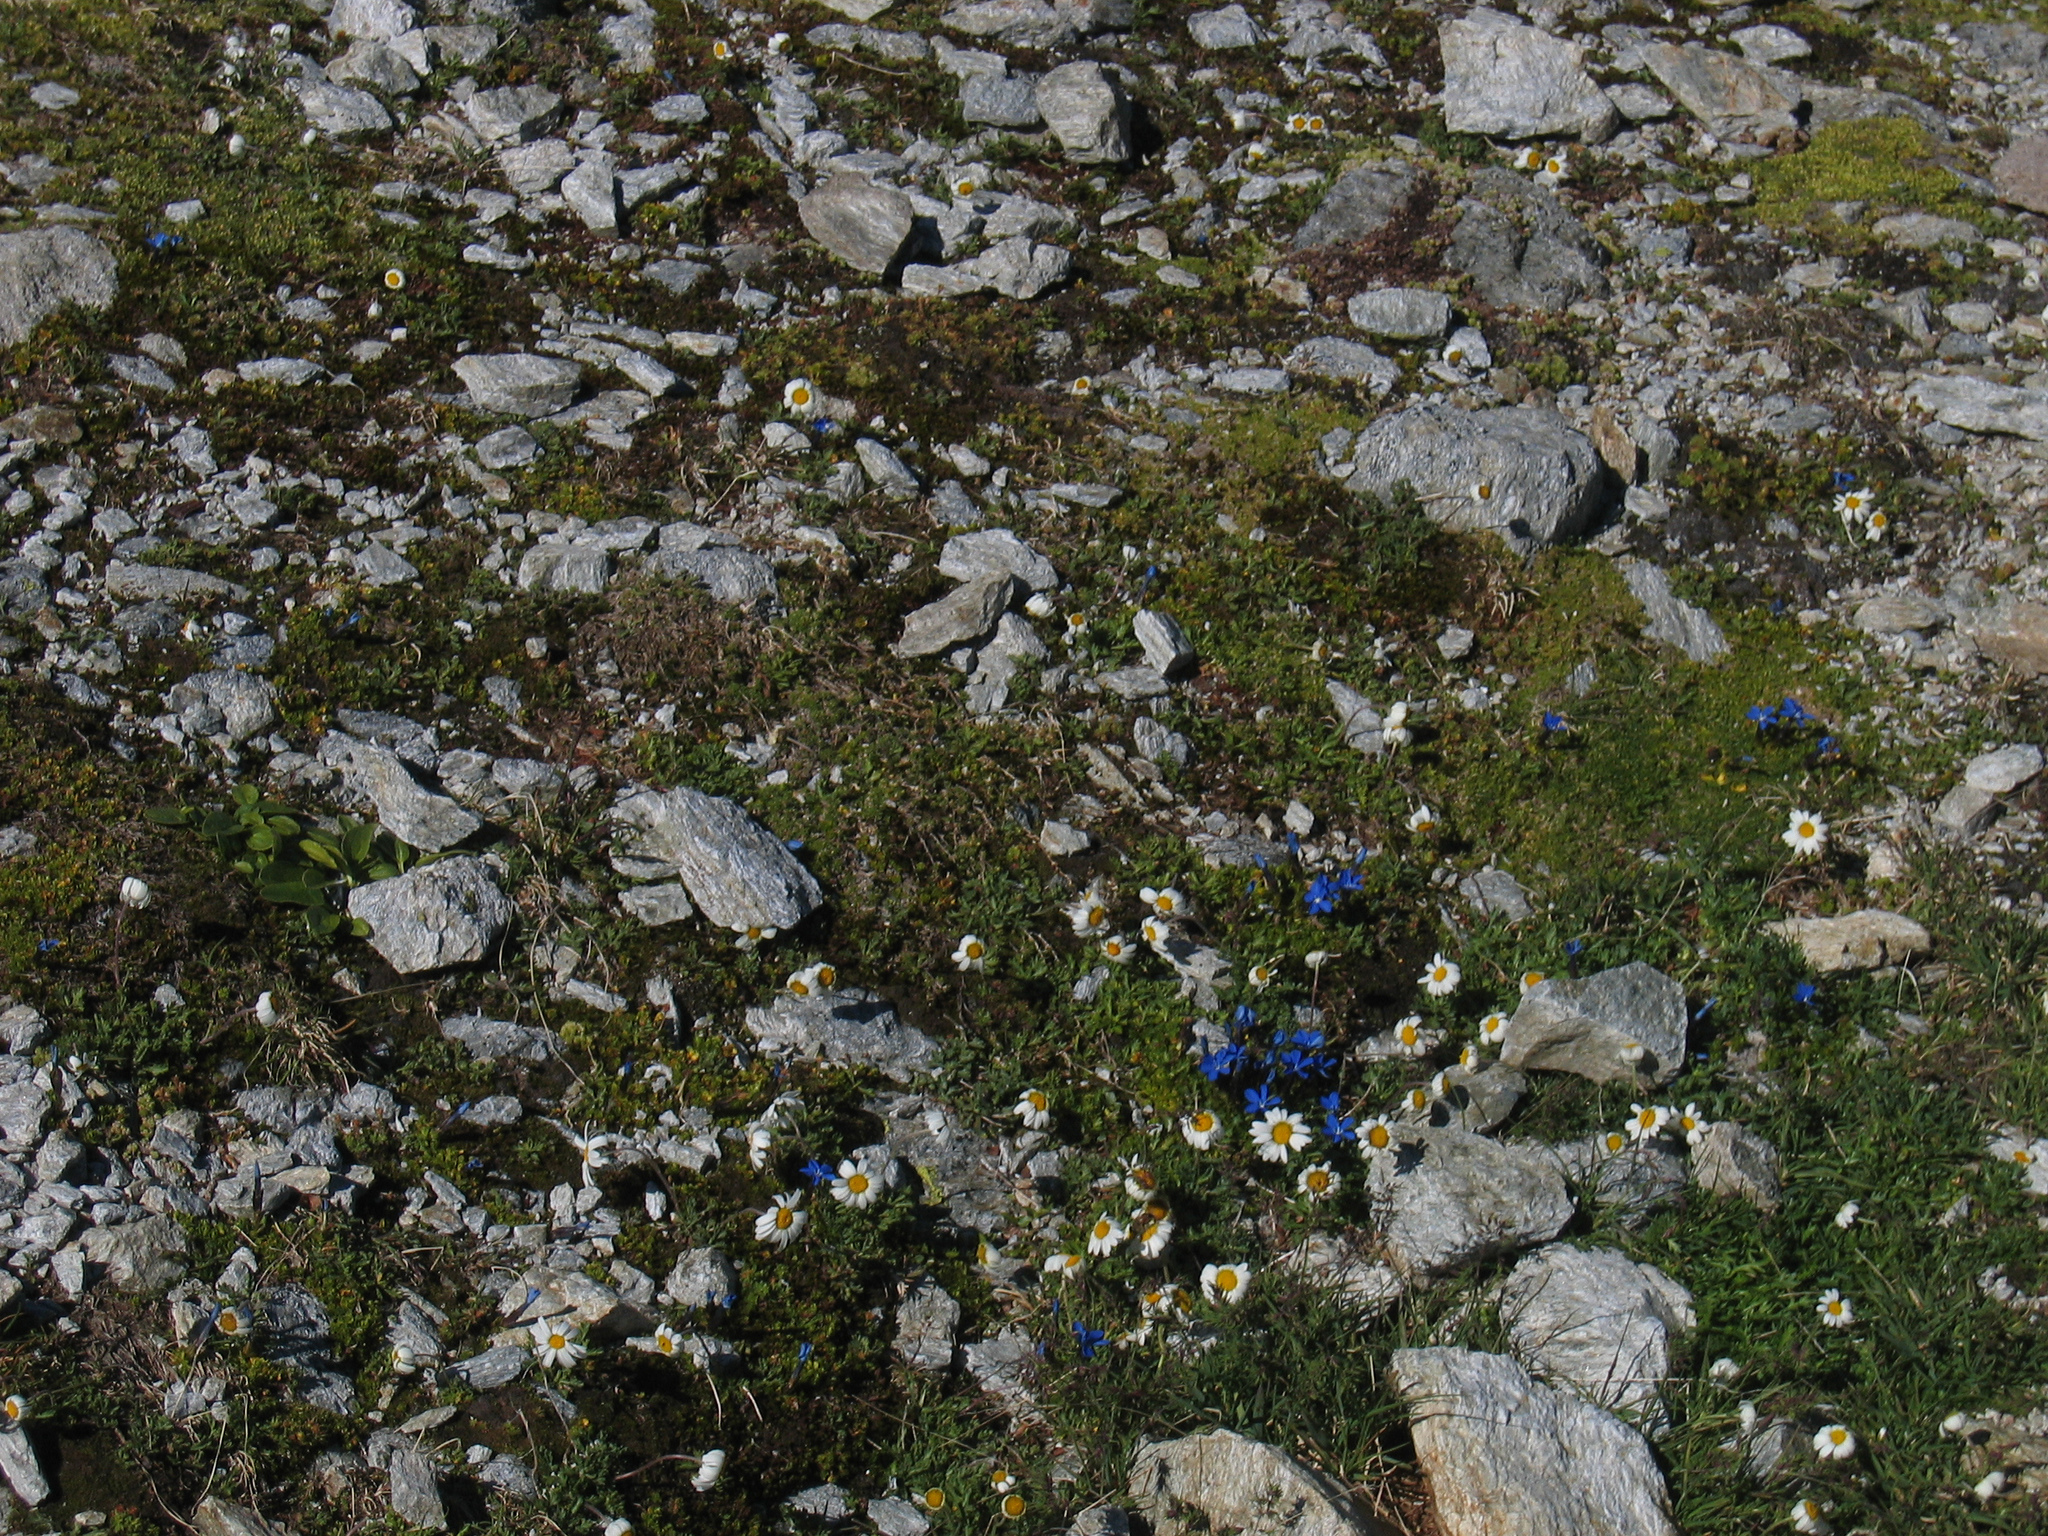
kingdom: Plantae
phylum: Tracheophyta
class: Magnoliopsida
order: Gentianales
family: Gentianaceae
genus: Gentiana
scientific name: Gentiana
